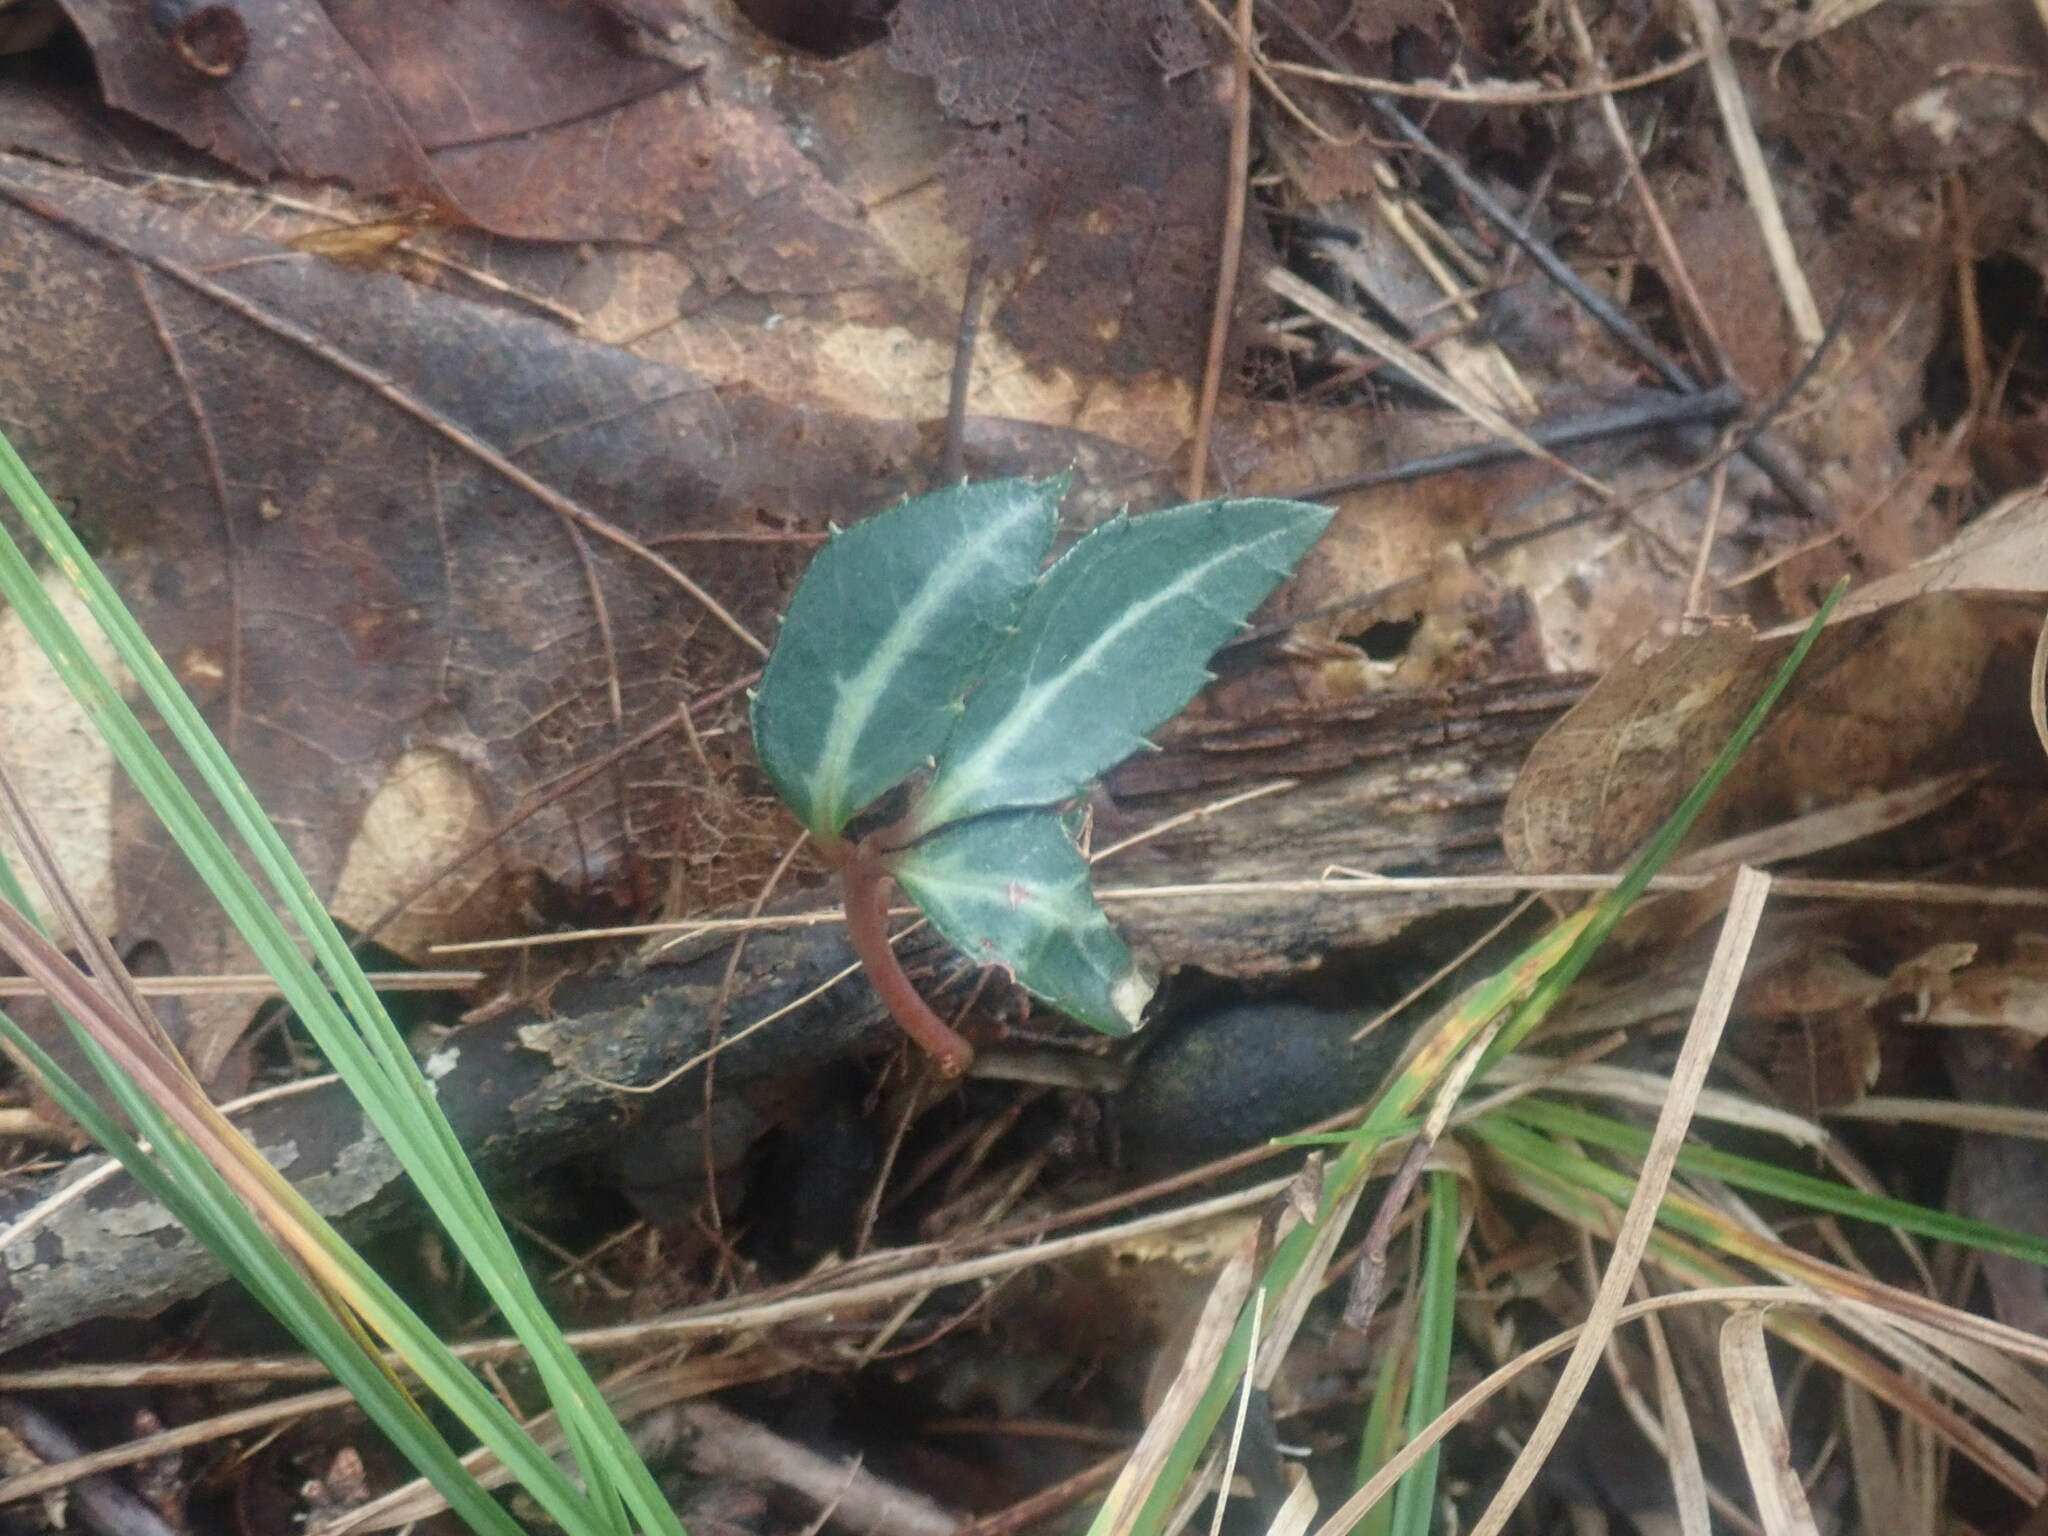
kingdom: Plantae
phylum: Tracheophyta
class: Magnoliopsida
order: Ericales
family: Ericaceae
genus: Chimaphila
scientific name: Chimaphila maculata
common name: Spotted pipsissewa
